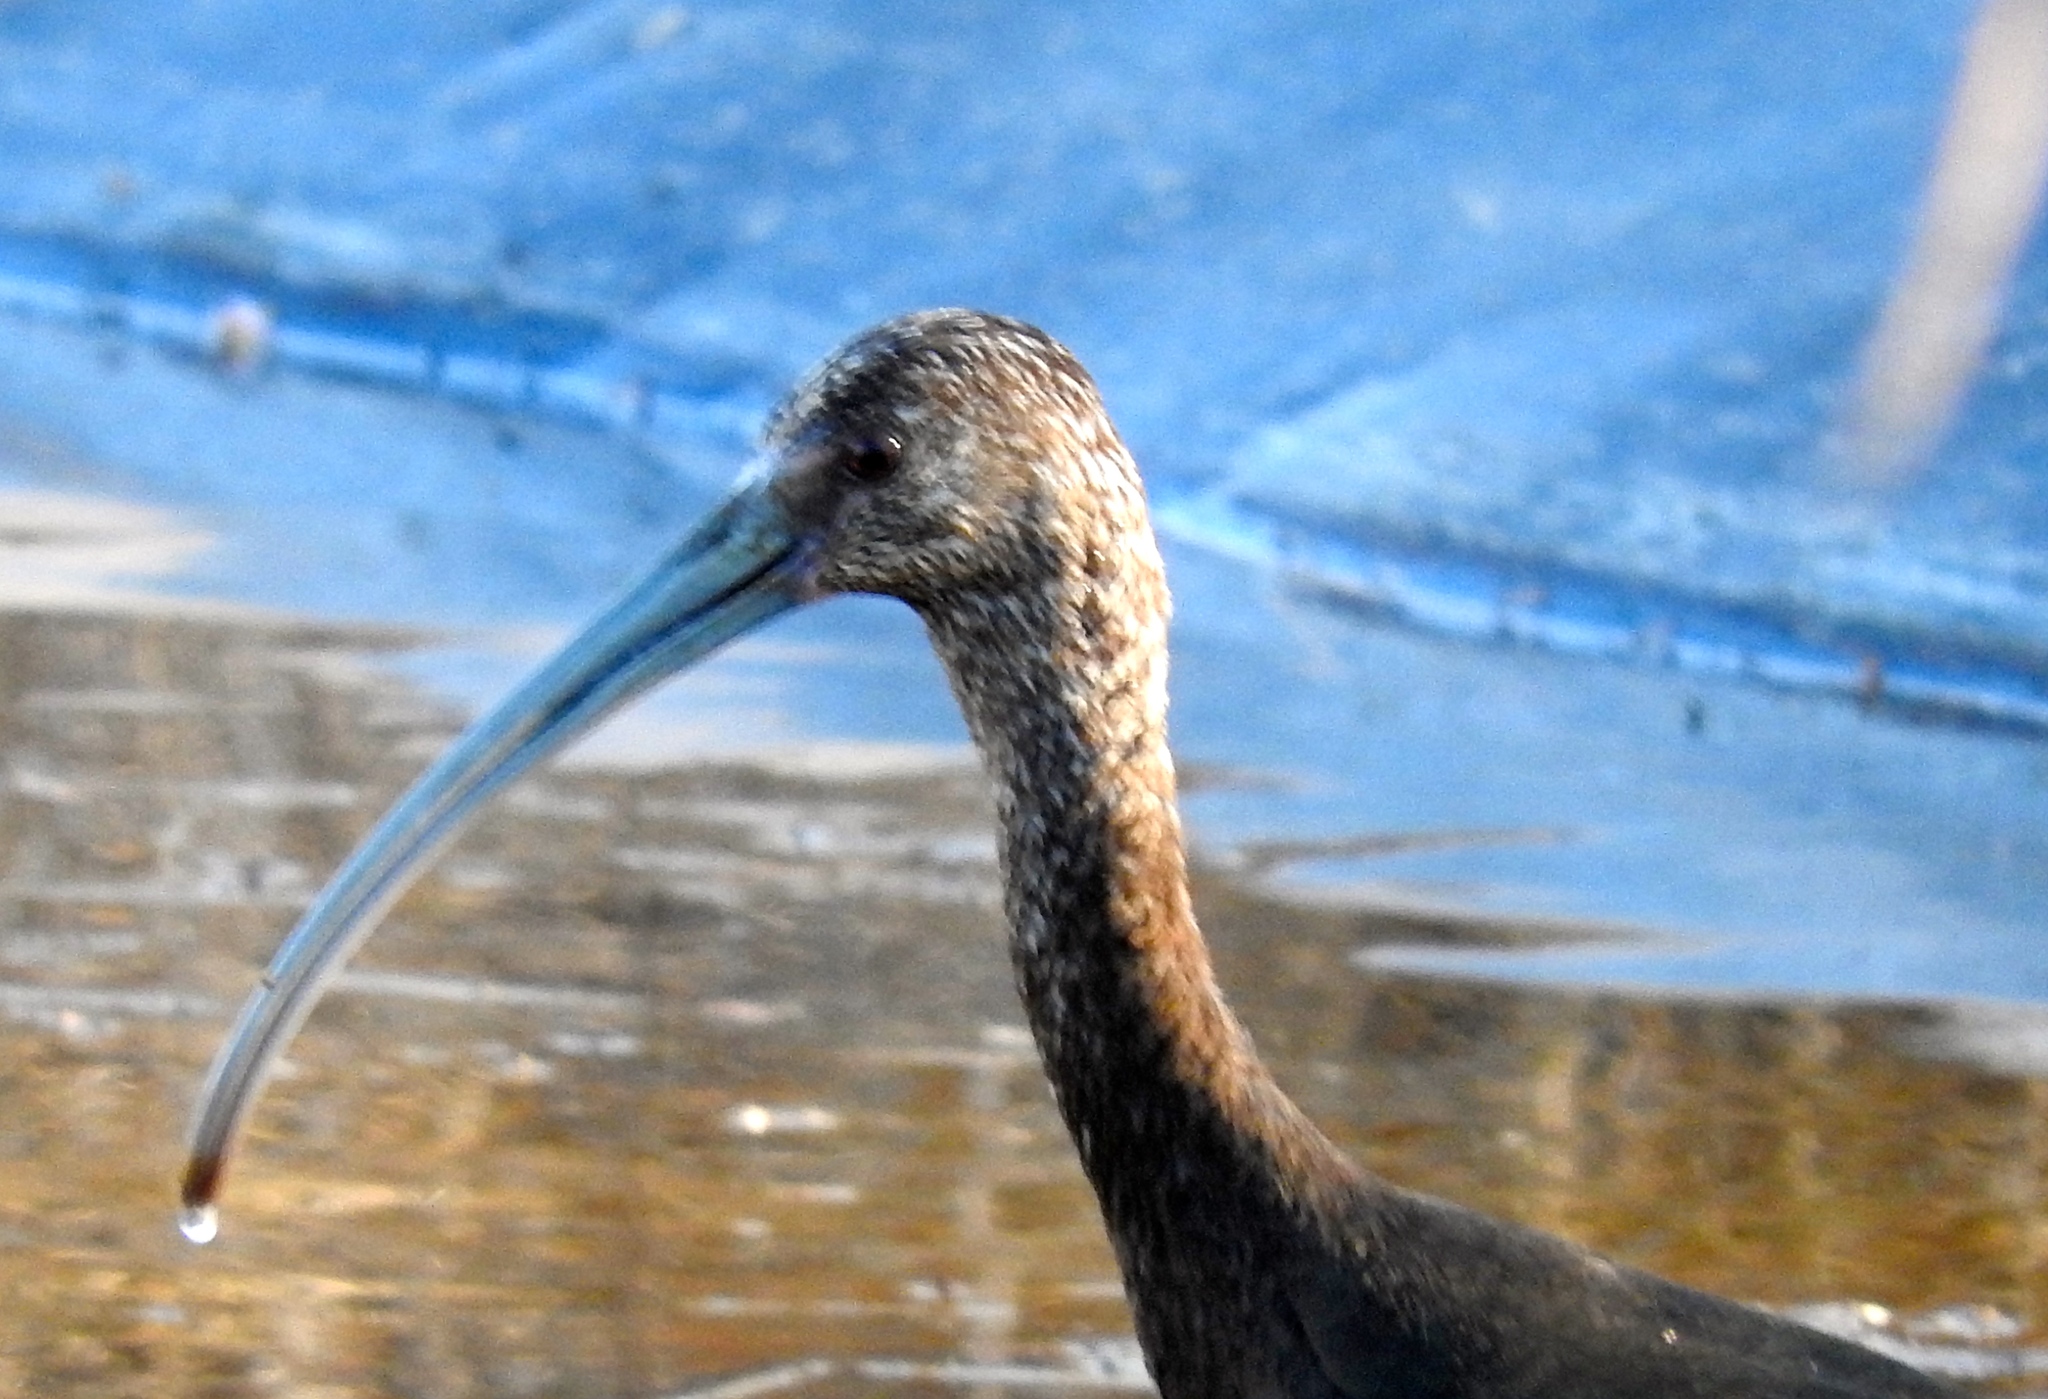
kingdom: Animalia
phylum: Chordata
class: Aves
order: Pelecaniformes
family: Threskiornithidae
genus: Plegadis
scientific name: Plegadis chihi
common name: White-faced ibis
